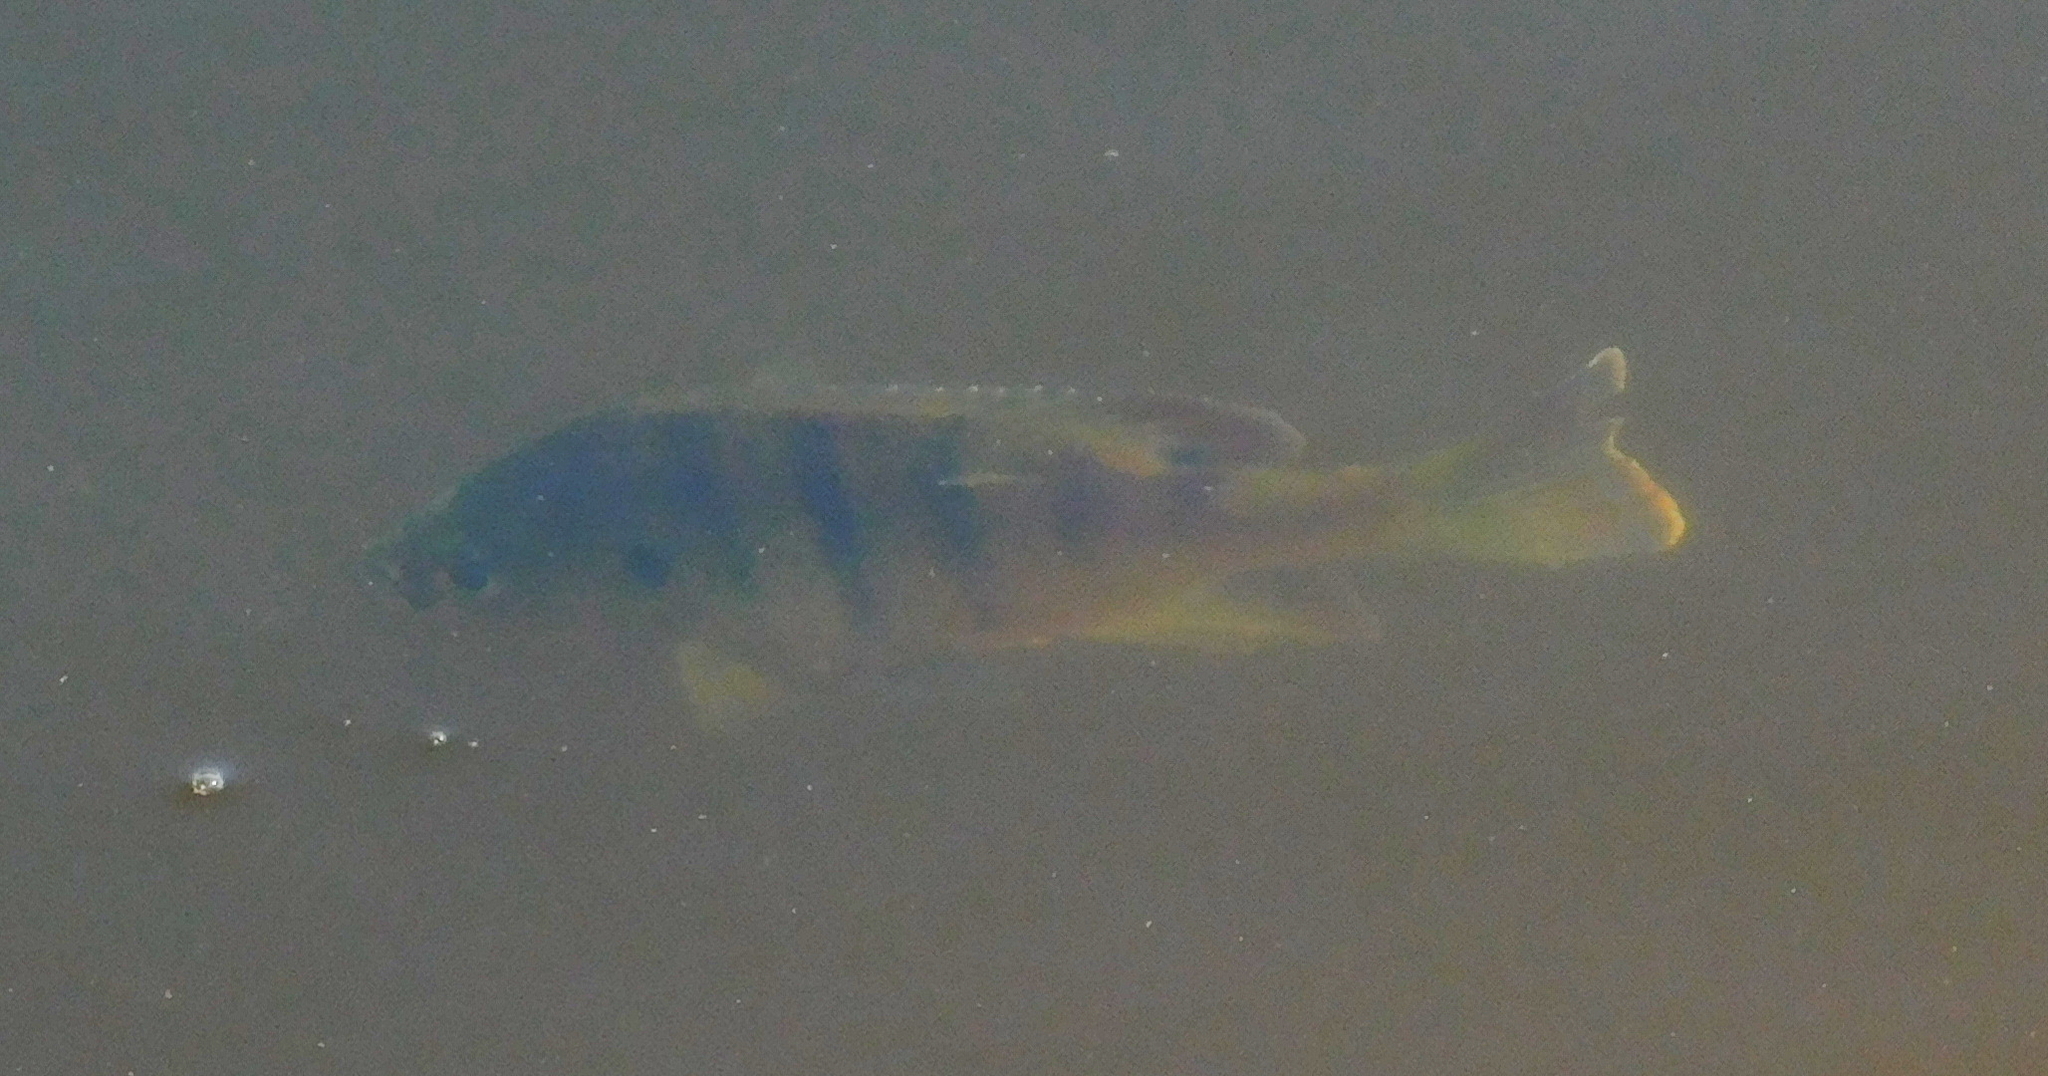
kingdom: Animalia
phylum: Chordata
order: Perciformes
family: Centrarchidae
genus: Lepomis
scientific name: Lepomis macrochirus
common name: Bluegill
